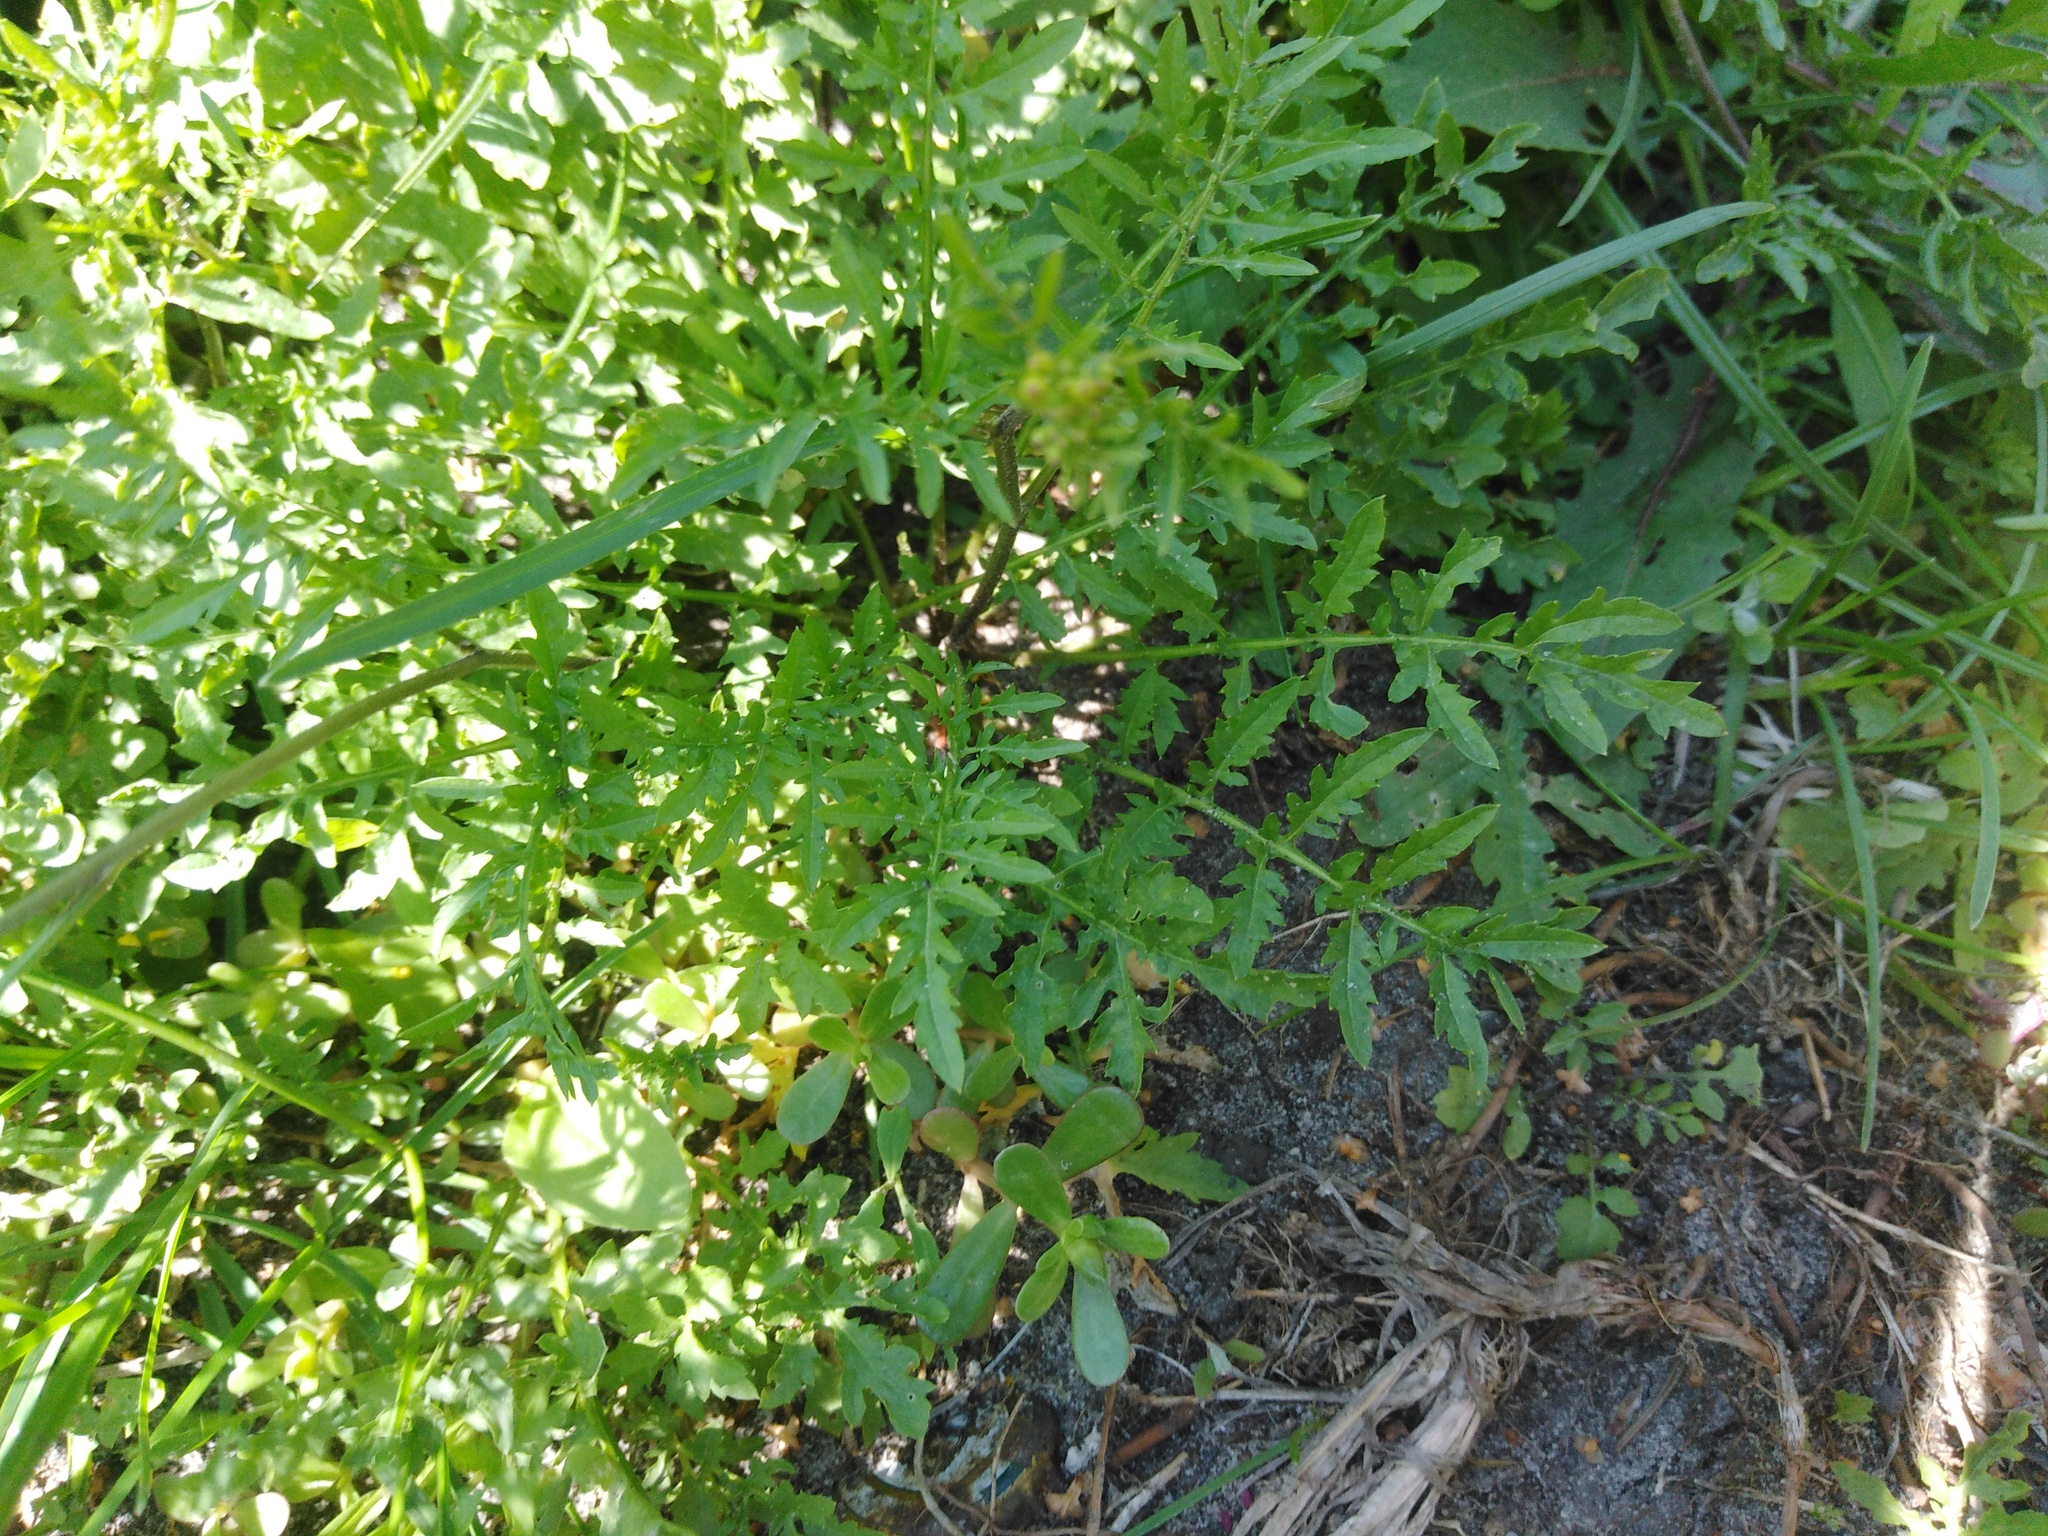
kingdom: Plantae
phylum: Tracheophyta
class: Magnoliopsida
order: Brassicales
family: Brassicaceae
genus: Rorippa
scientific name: Rorippa sylvestris
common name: Creeping yellowcress
